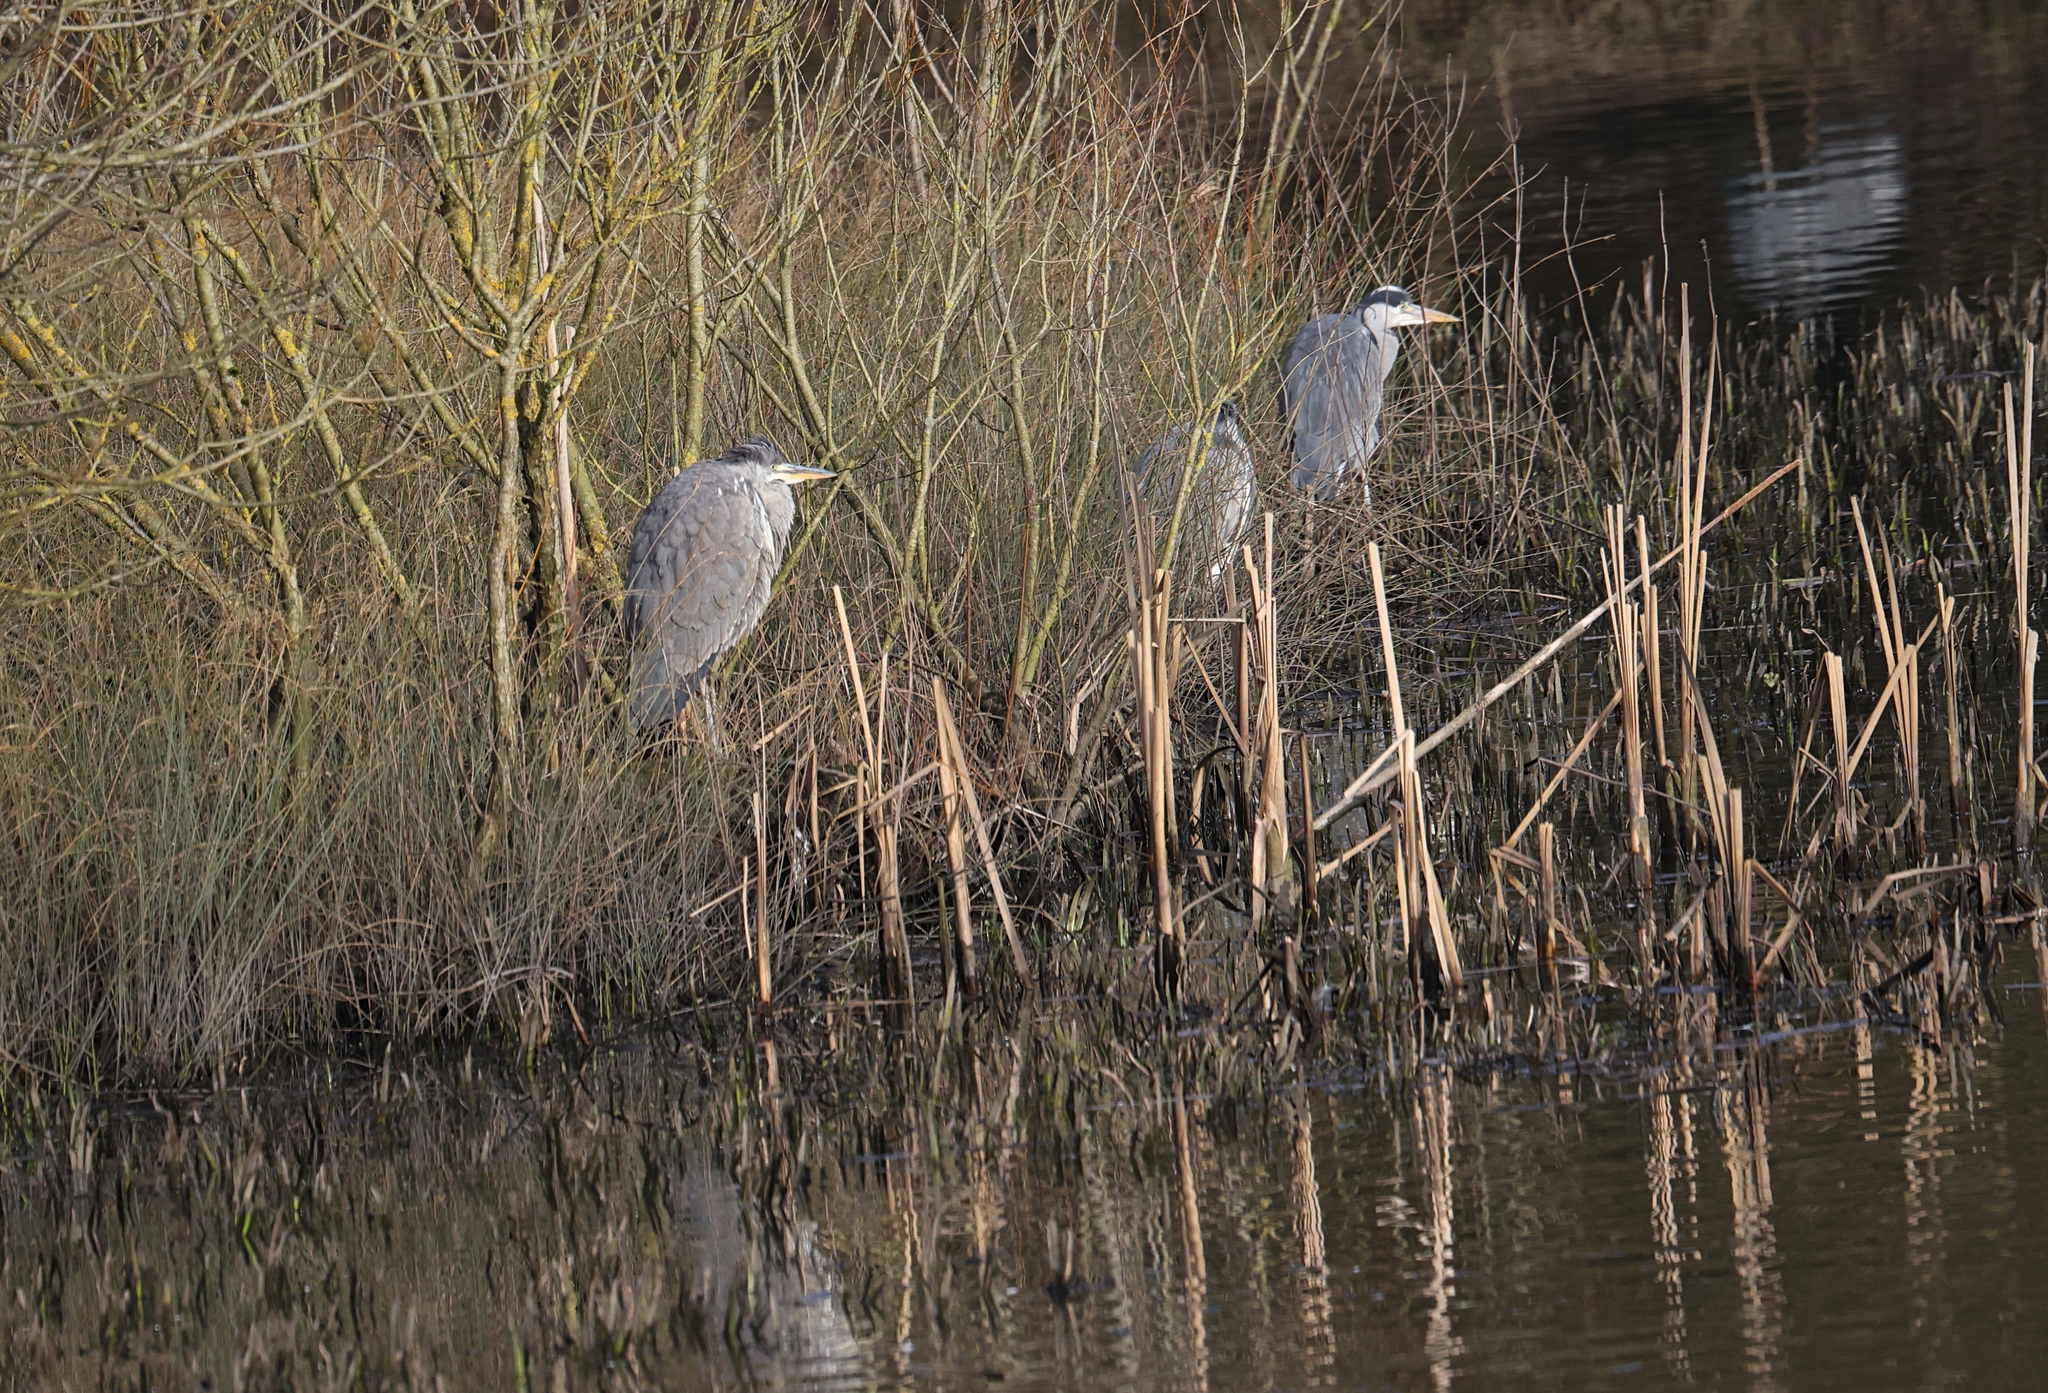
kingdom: Animalia
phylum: Chordata
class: Aves
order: Pelecaniformes
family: Ardeidae
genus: Ardea
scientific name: Ardea cinerea
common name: Grey heron
